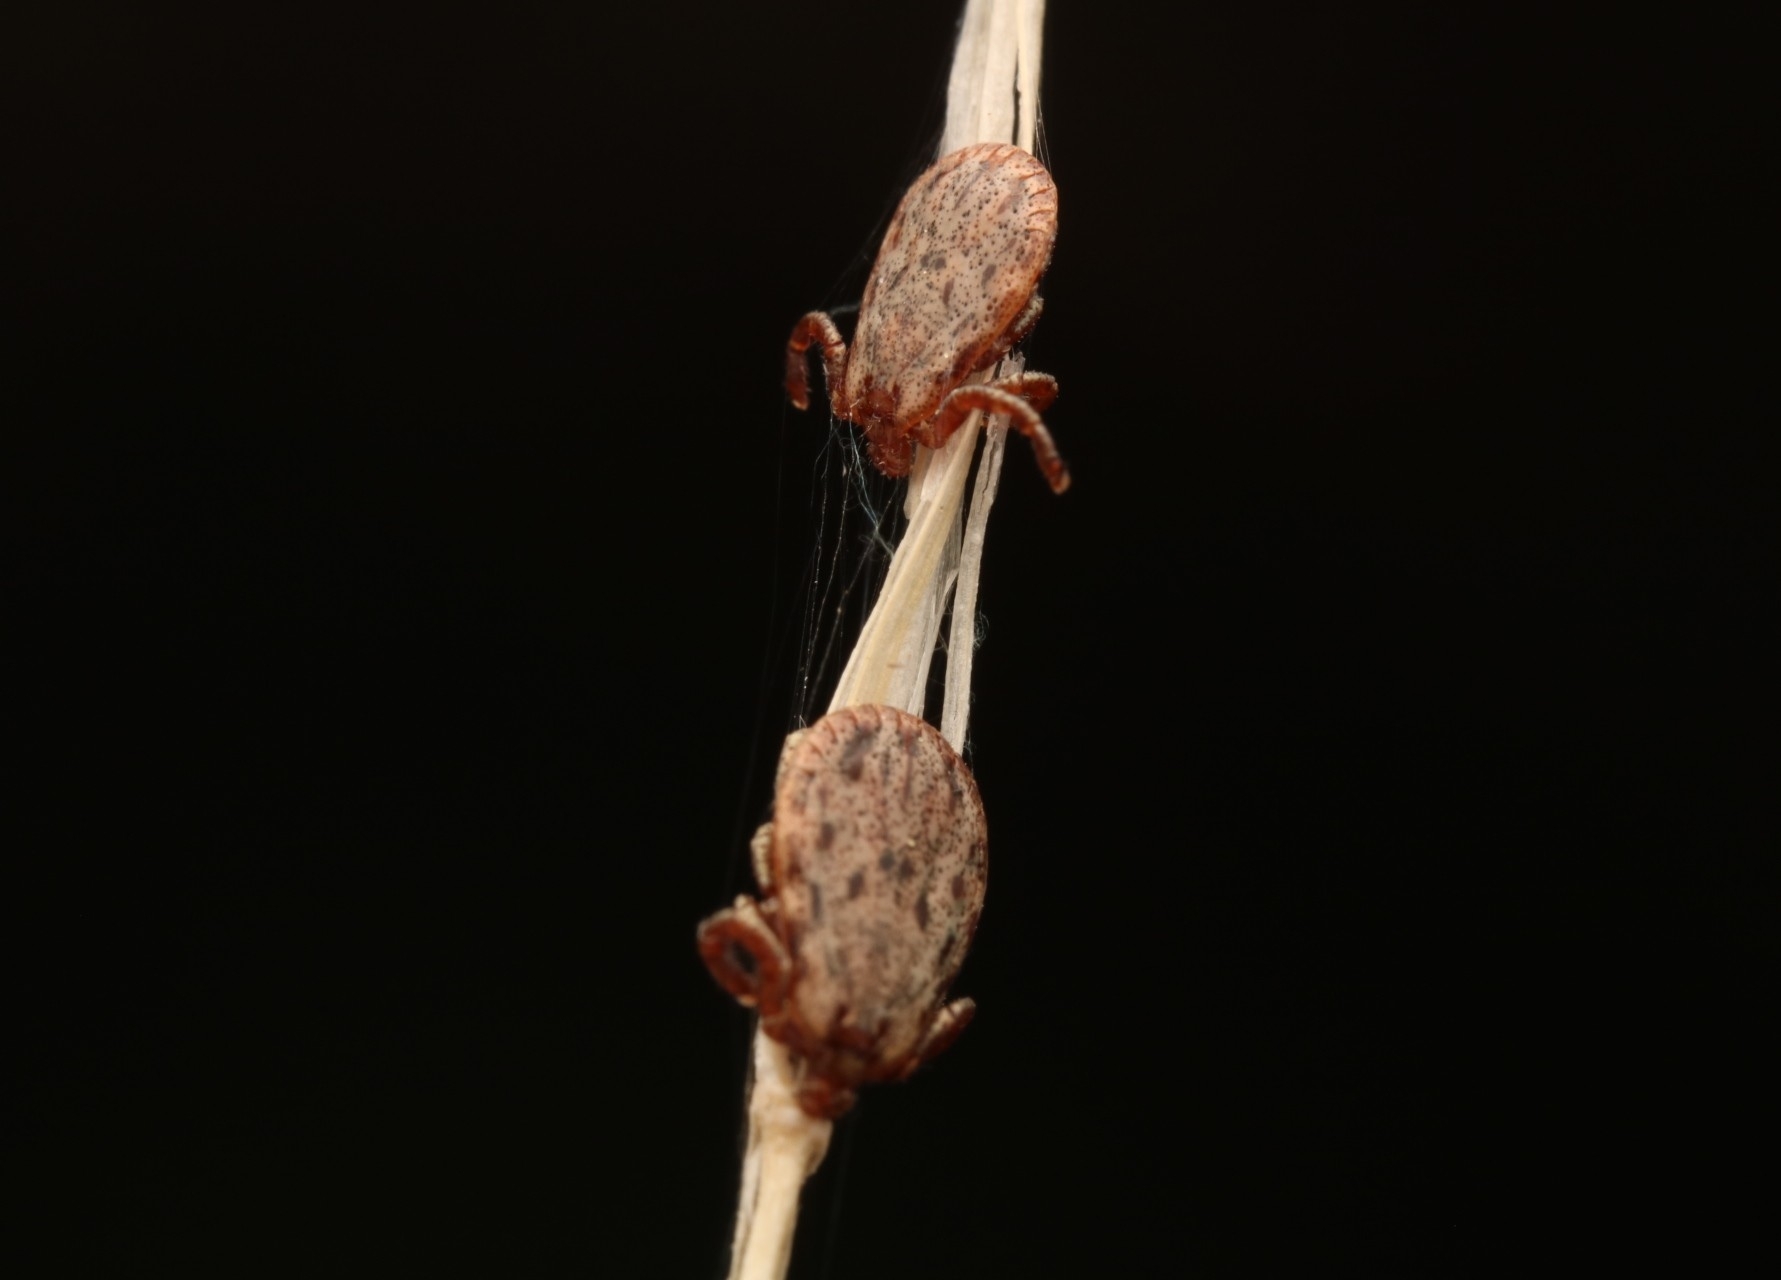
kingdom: Animalia
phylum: Arthropoda
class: Arachnida
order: Ixodida
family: Ixodidae
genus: Dermacentor
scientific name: Dermacentor occidentalis
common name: Net tick
